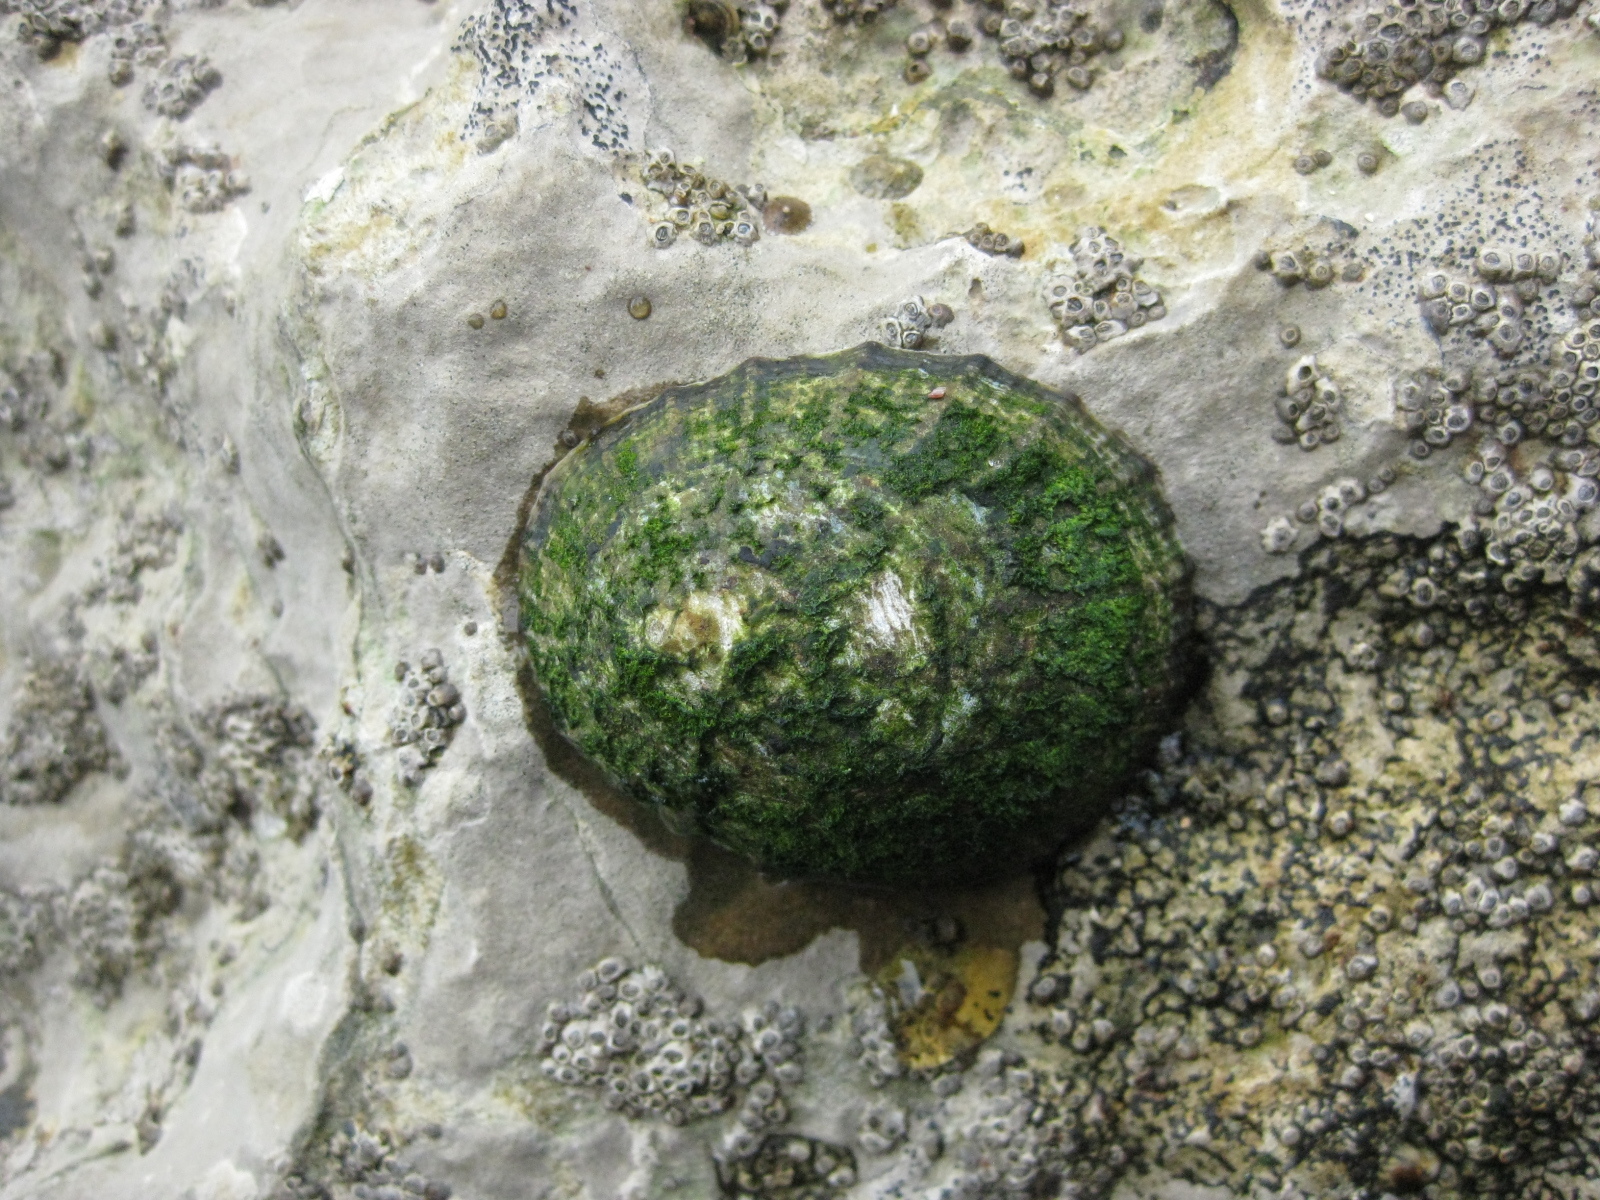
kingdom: Animalia
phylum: Mollusca
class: Gastropoda
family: Nacellidae
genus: Cellana
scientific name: Cellana radians
